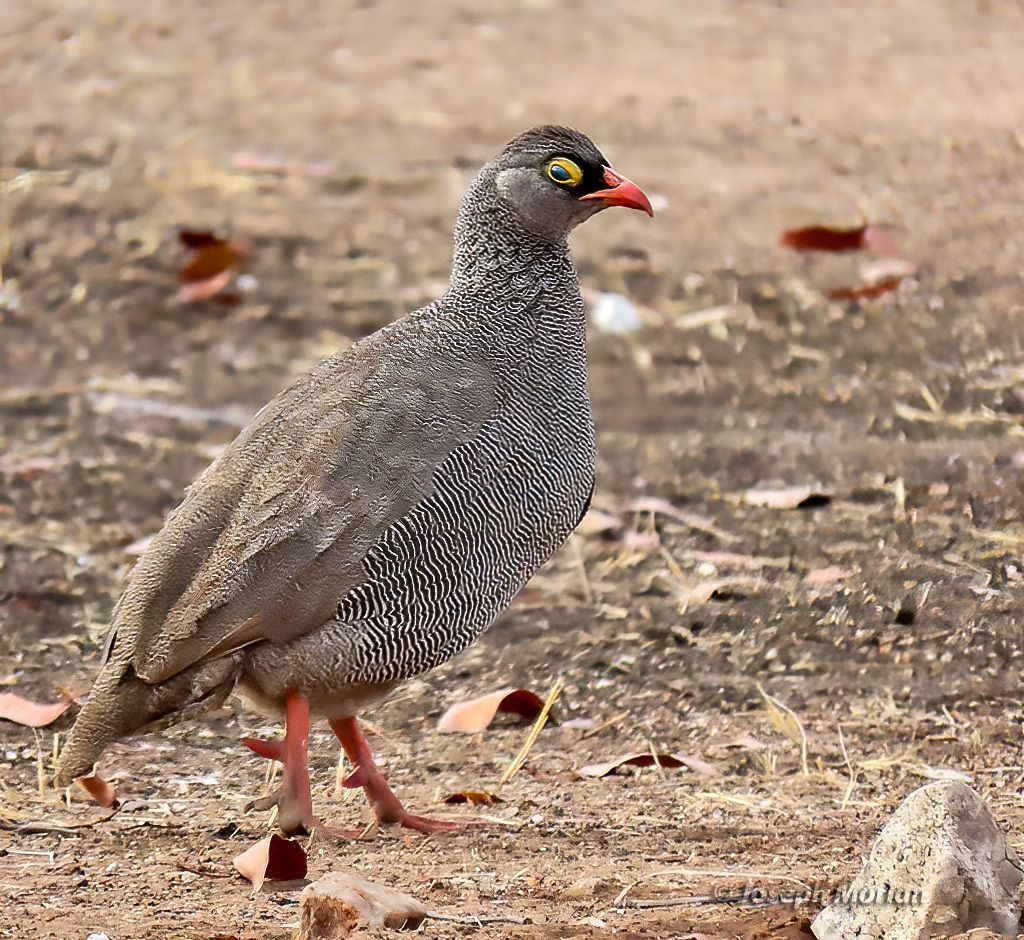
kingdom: Animalia
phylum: Chordata
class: Aves
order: Galliformes
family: Phasianidae
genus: Pternistis
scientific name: Pternistis adspersus
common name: Red-billed spurfowl
